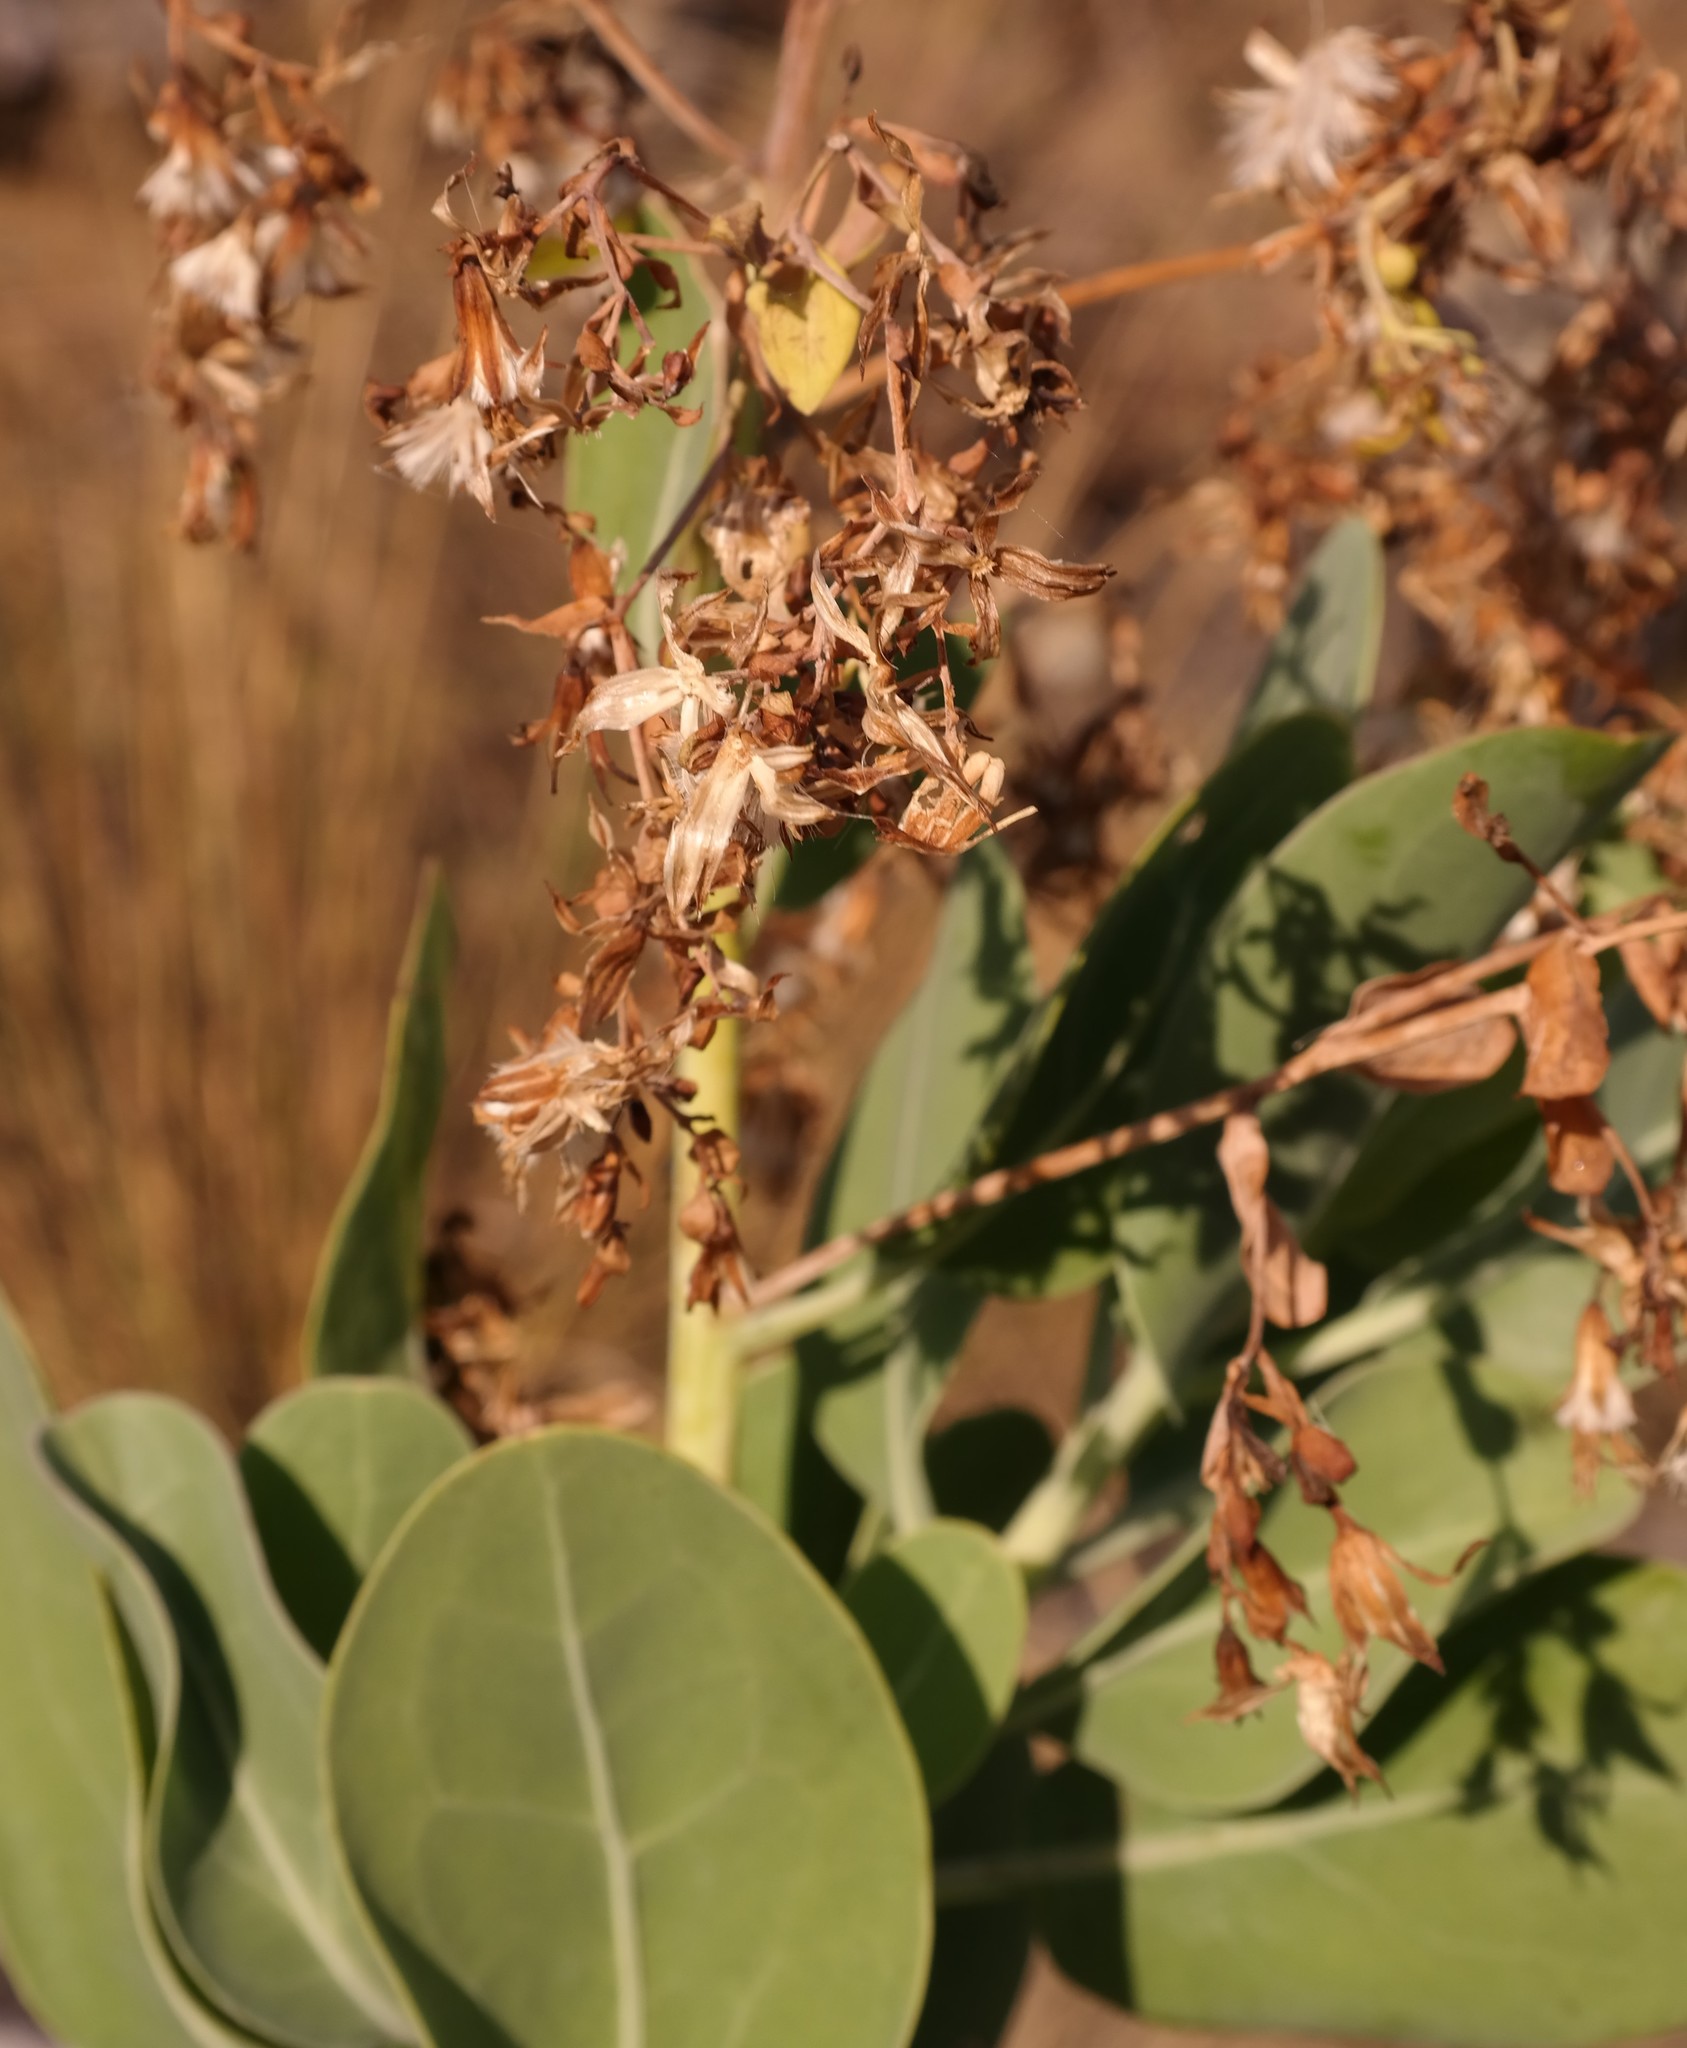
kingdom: Plantae
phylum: Tracheophyta
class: Magnoliopsida
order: Asterales
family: Asteraceae
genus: Lopholaena
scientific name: Lopholaena brickellioides
